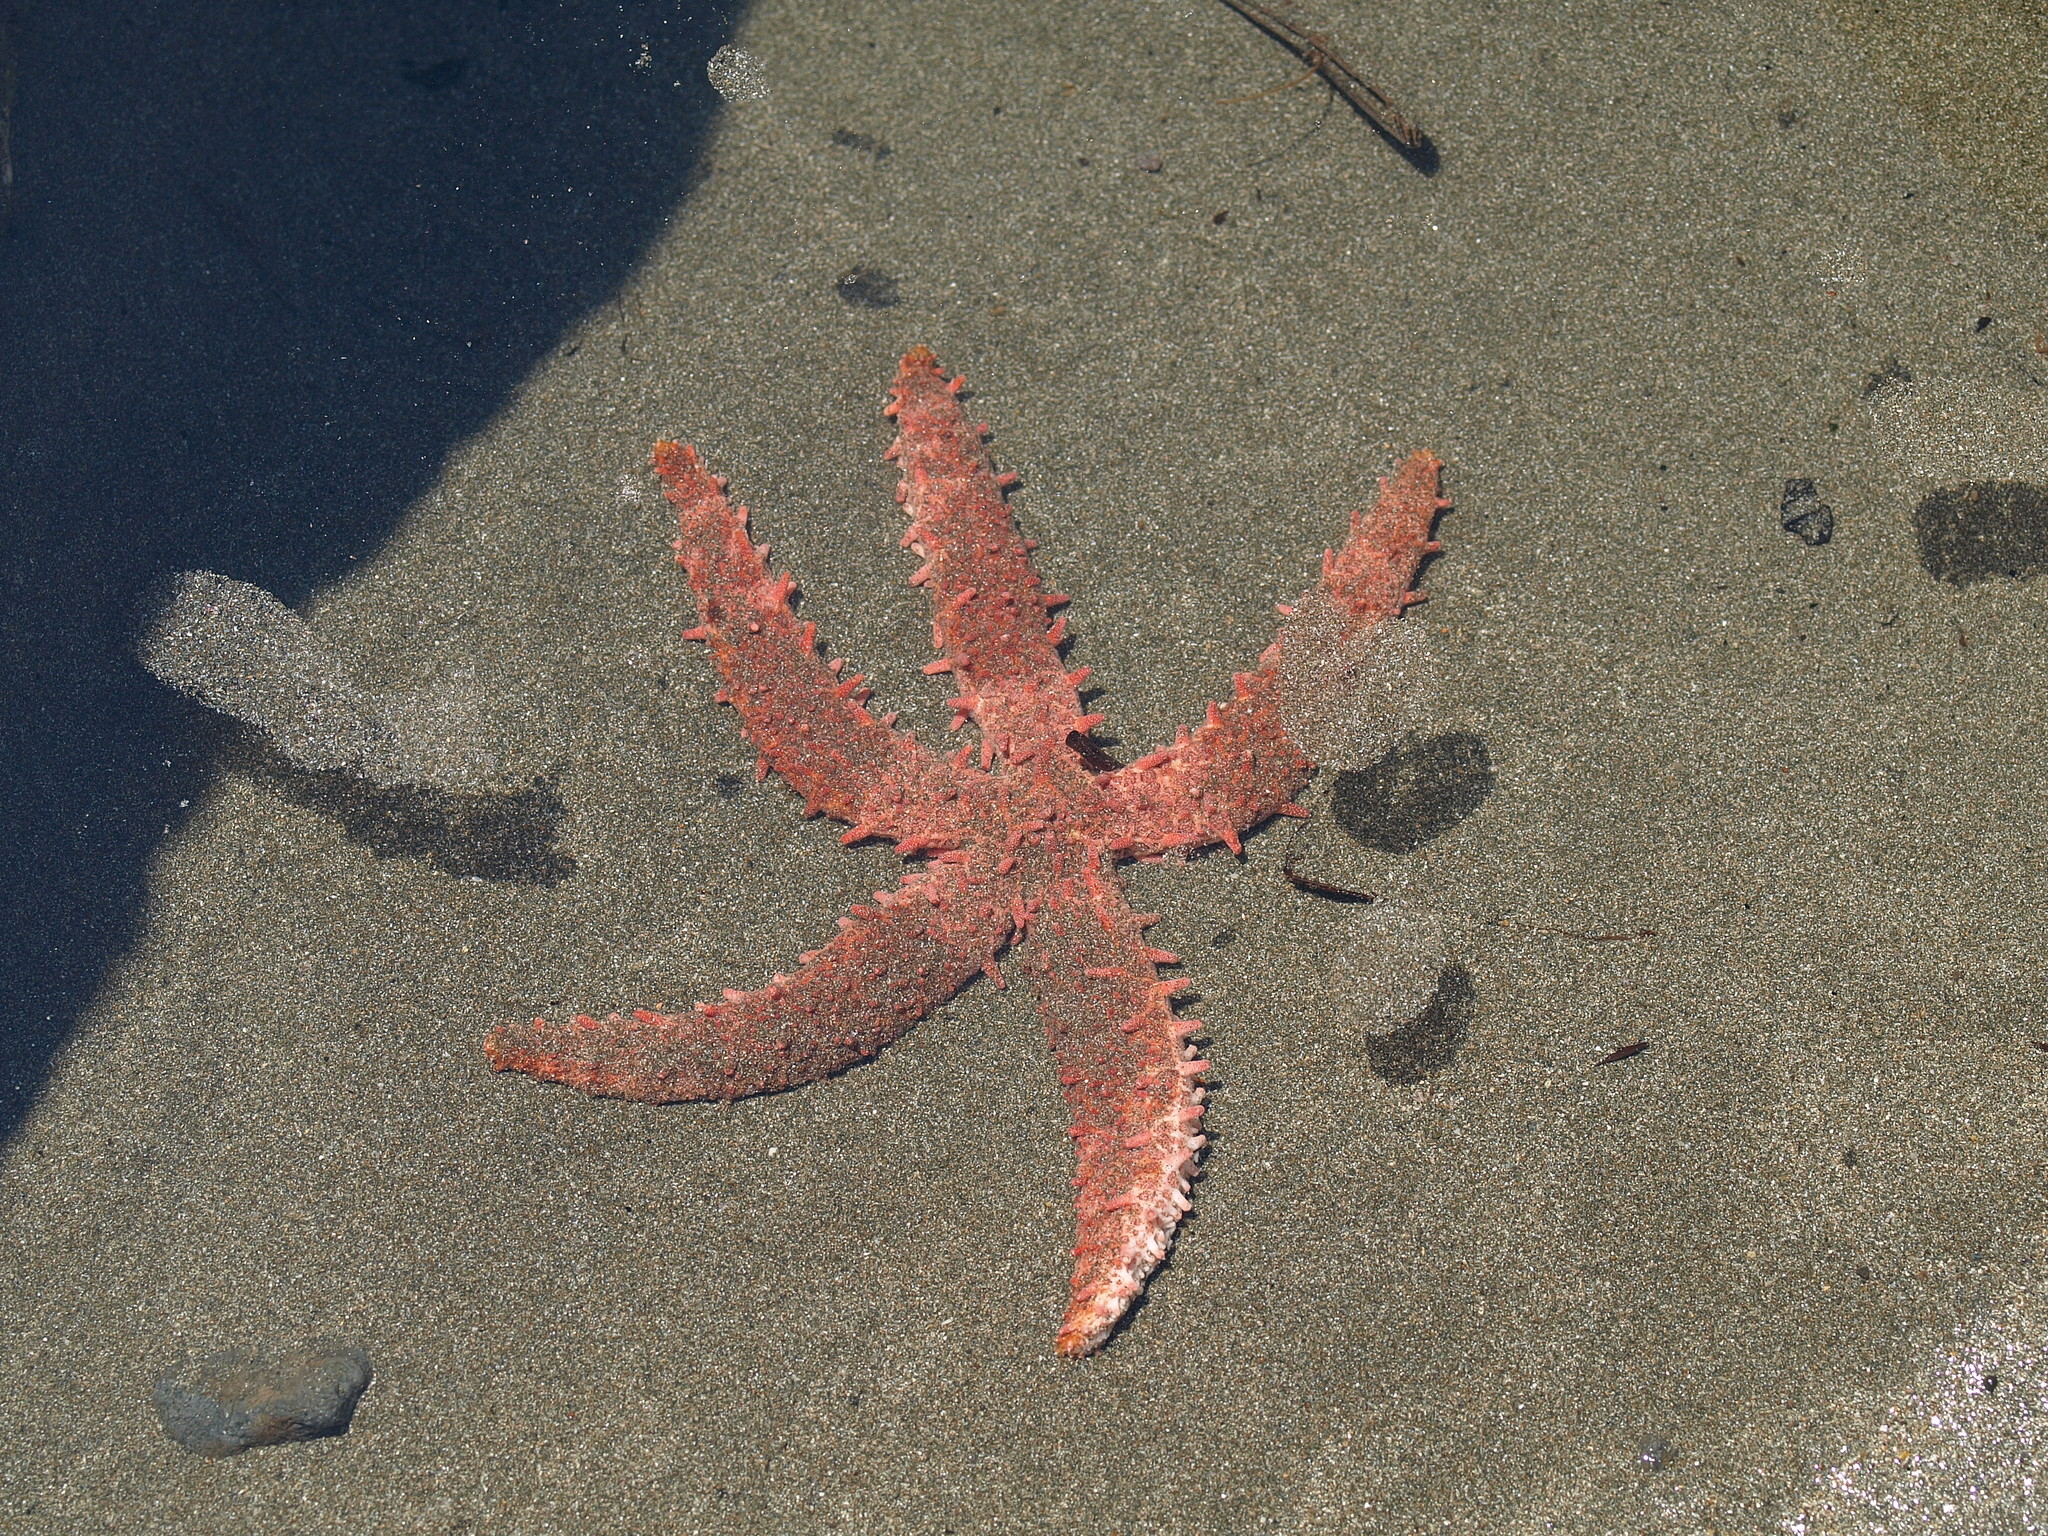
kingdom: Animalia
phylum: Echinodermata
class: Asteroidea
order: Valvatida
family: Mithrodiidae
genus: Mithrodia
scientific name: Mithrodia bradleyi
